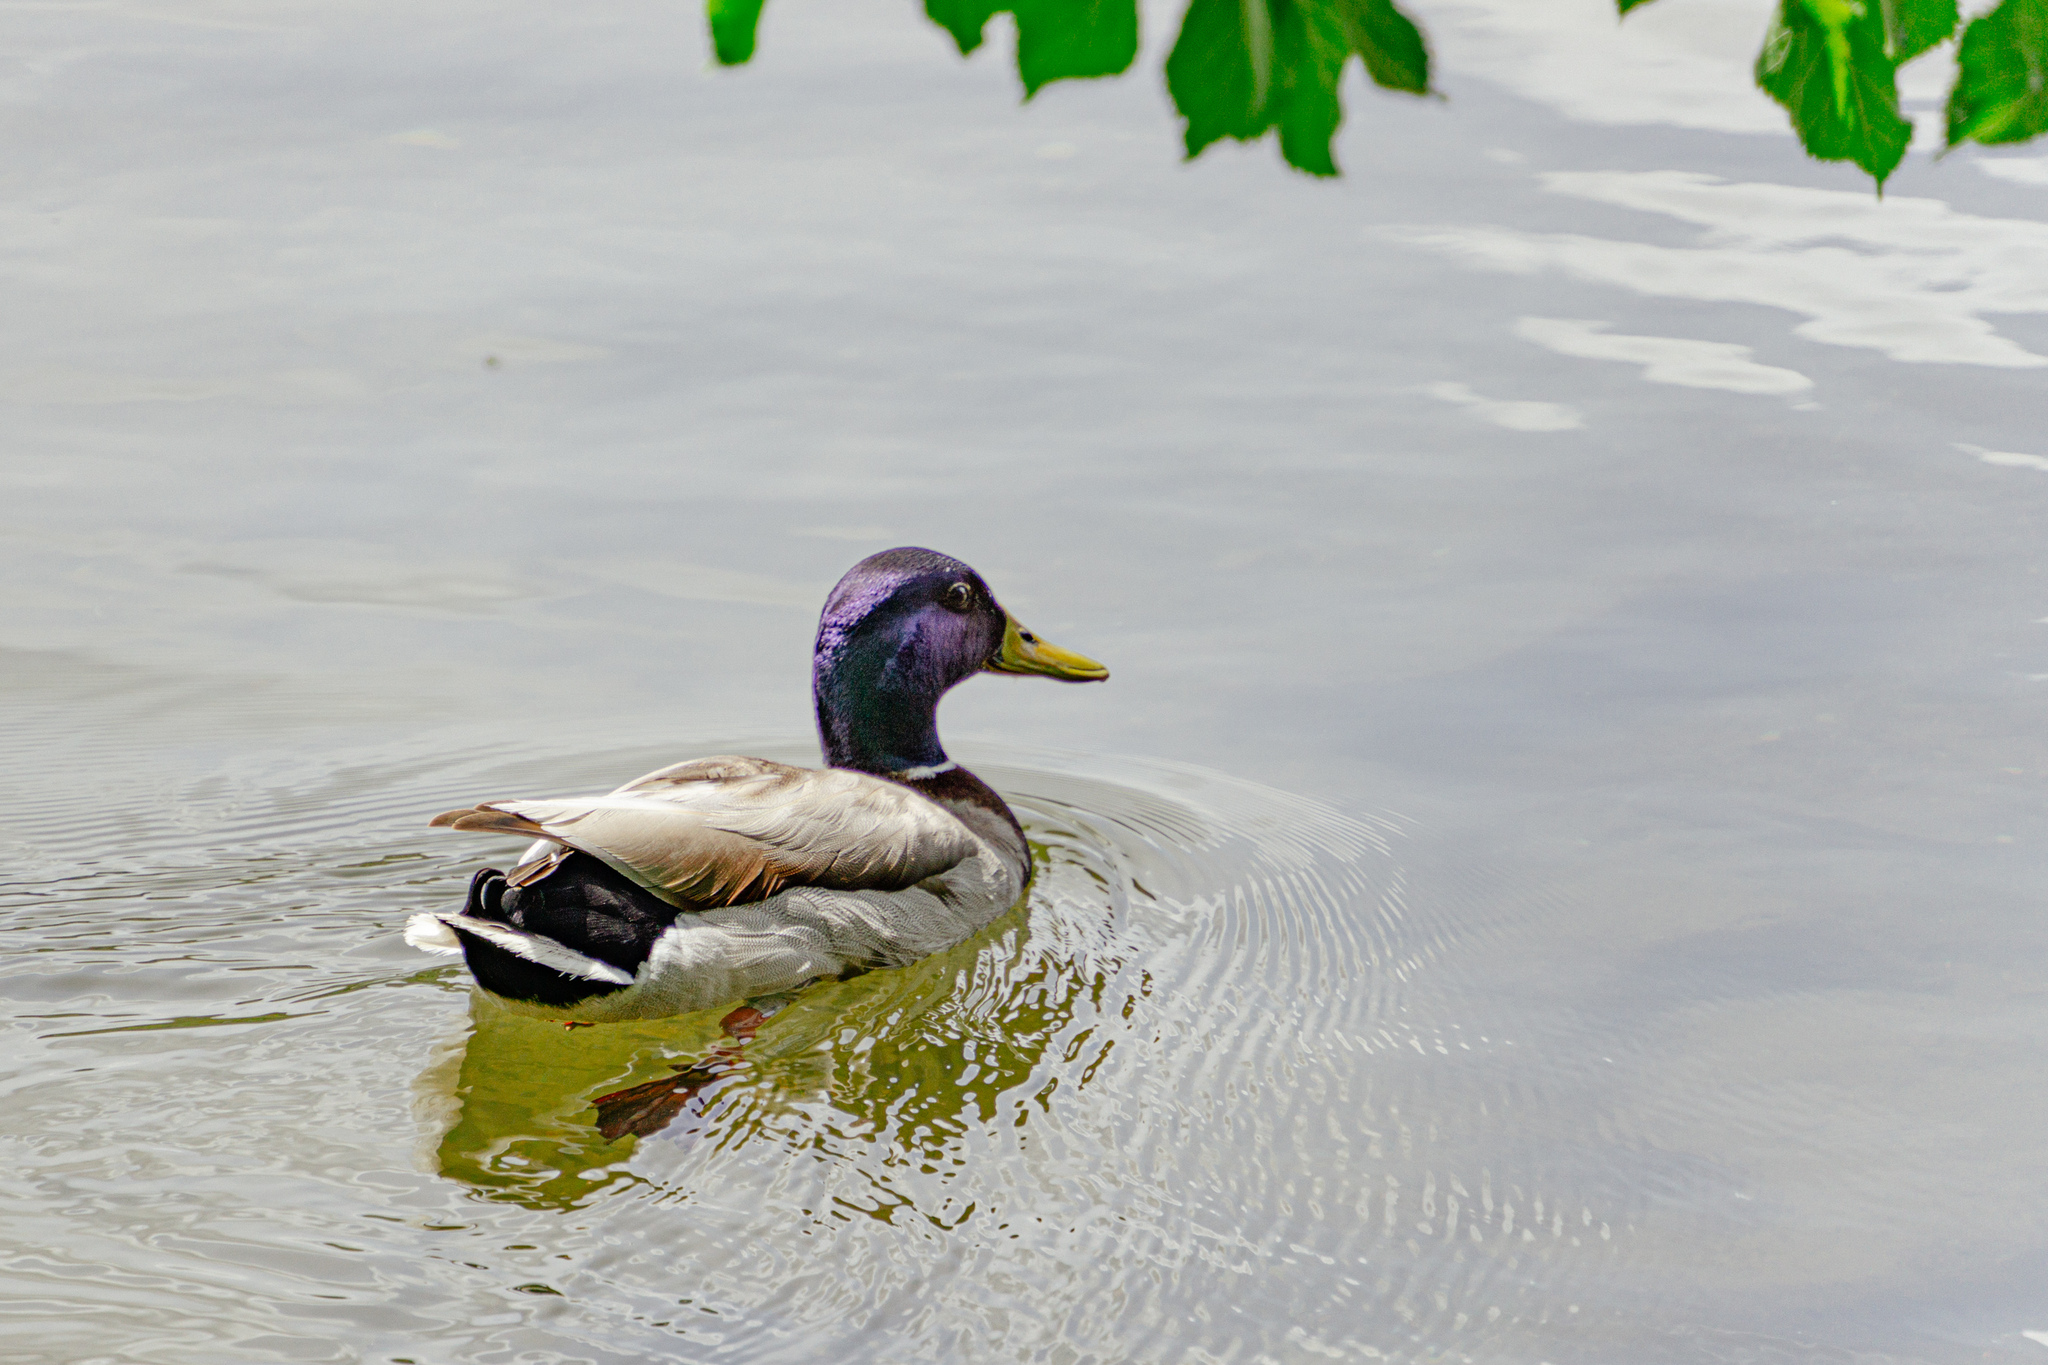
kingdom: Animalia
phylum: Chordata
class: Aves
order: Anseriformes
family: Anatidae
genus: Anas
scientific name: Anas platyrhynchos
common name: Mallard
